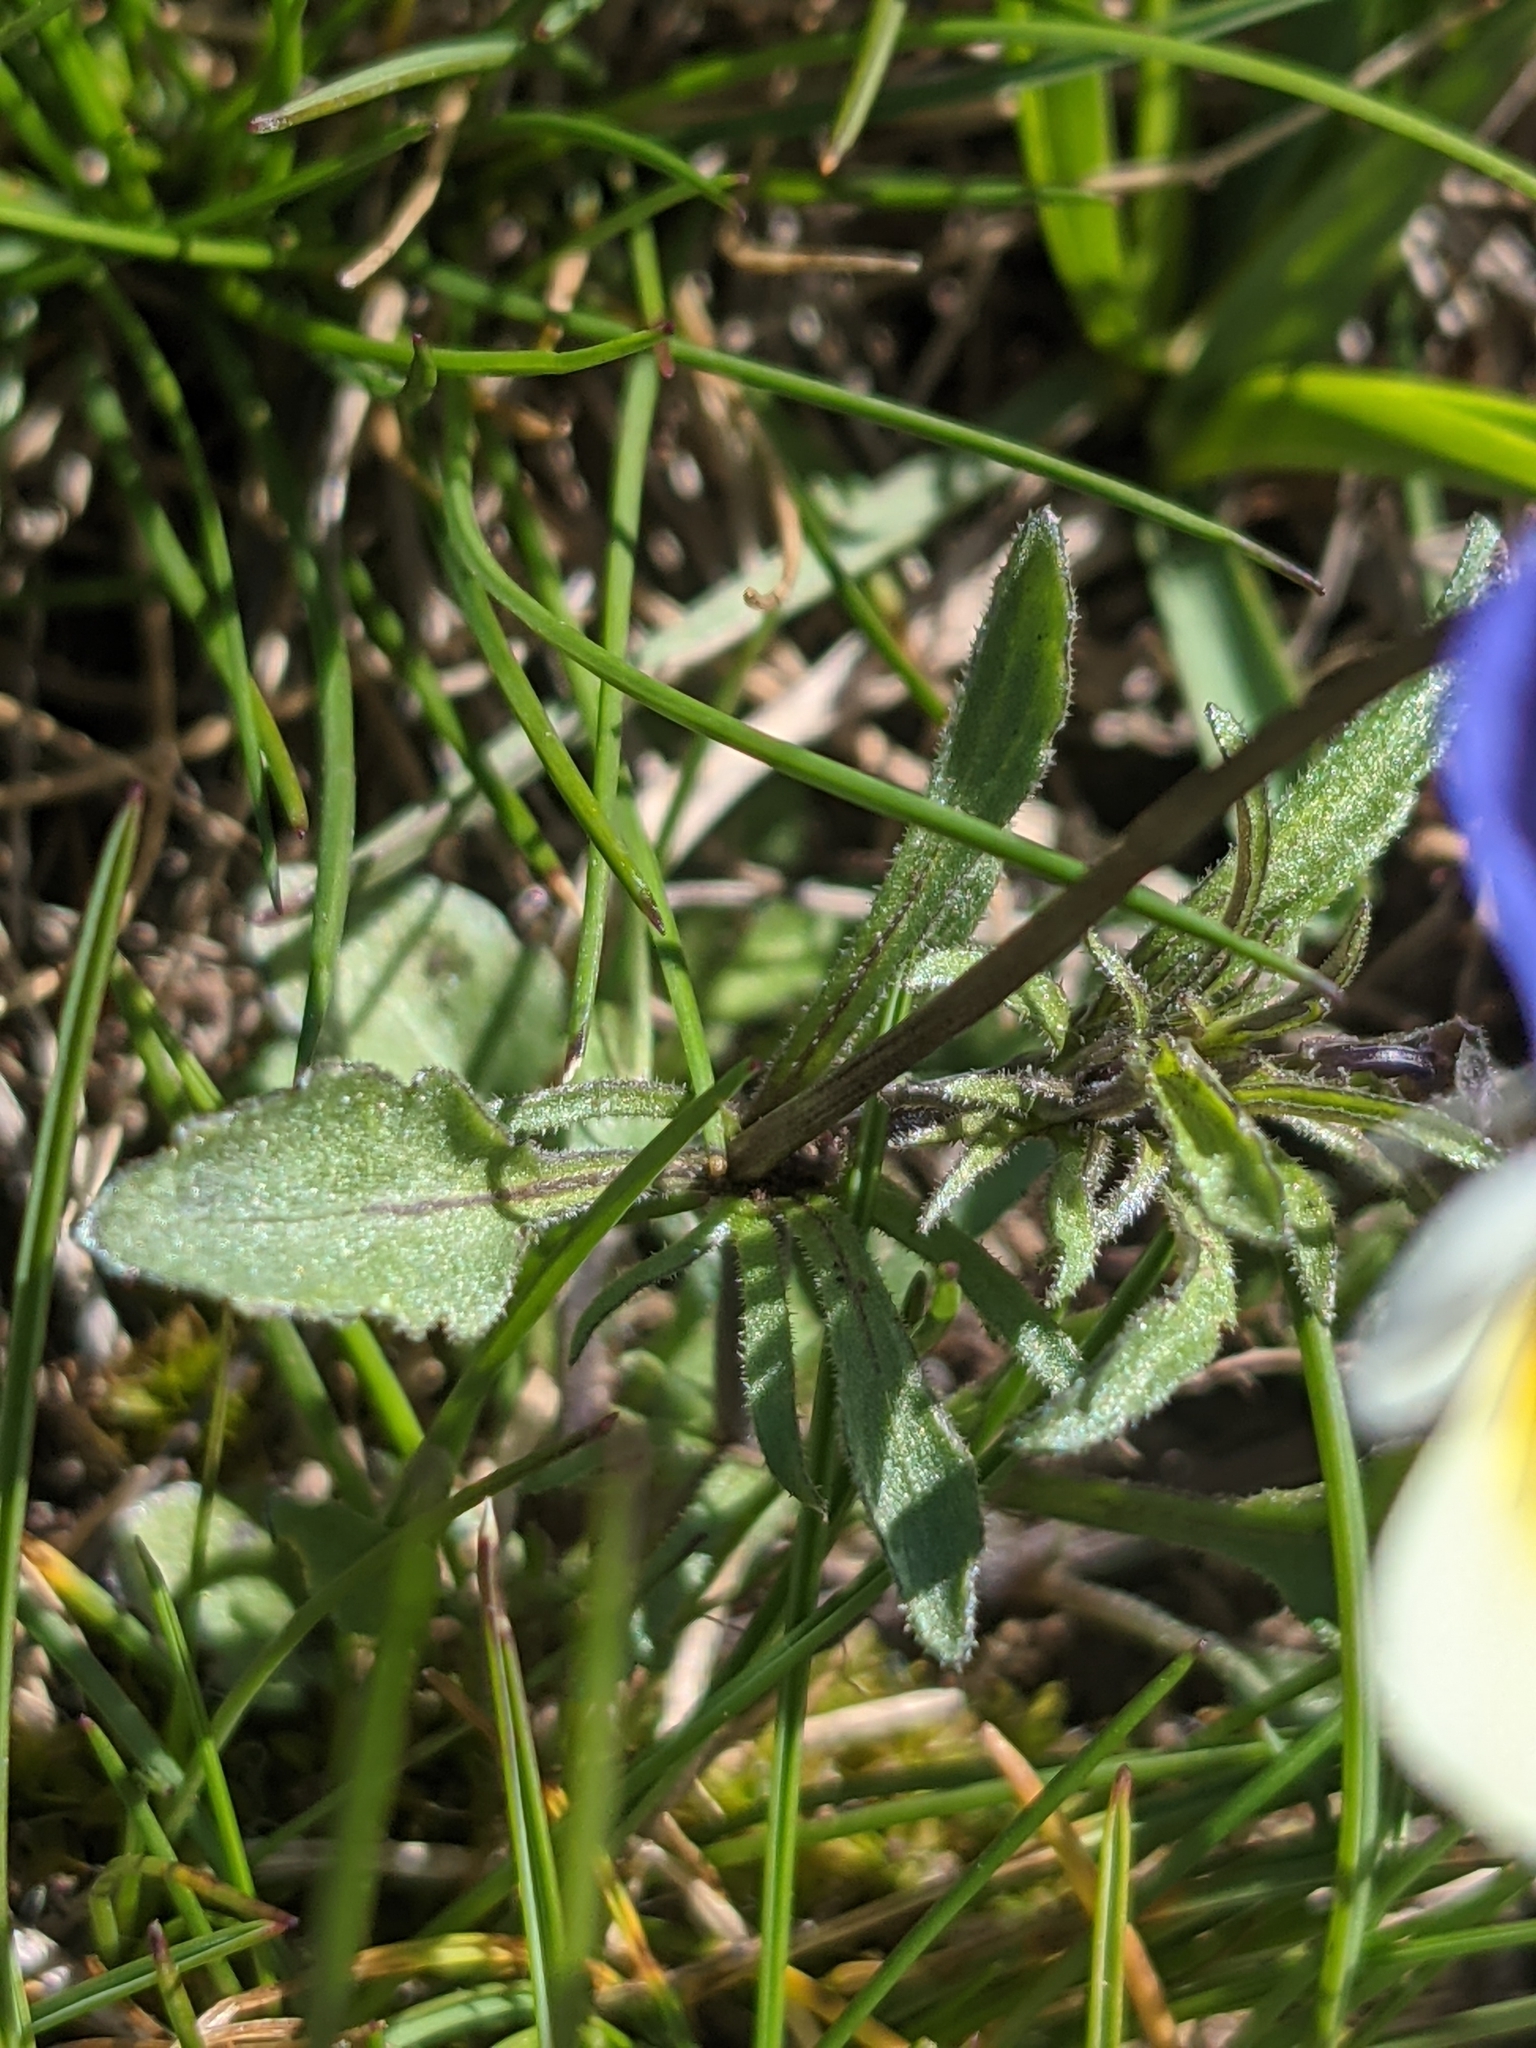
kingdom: Plantae
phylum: Tracheophyta
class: Magnoliopsida
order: Malpighiales
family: Violaceae
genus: Viola
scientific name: Viola tricolor
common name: Pansy
